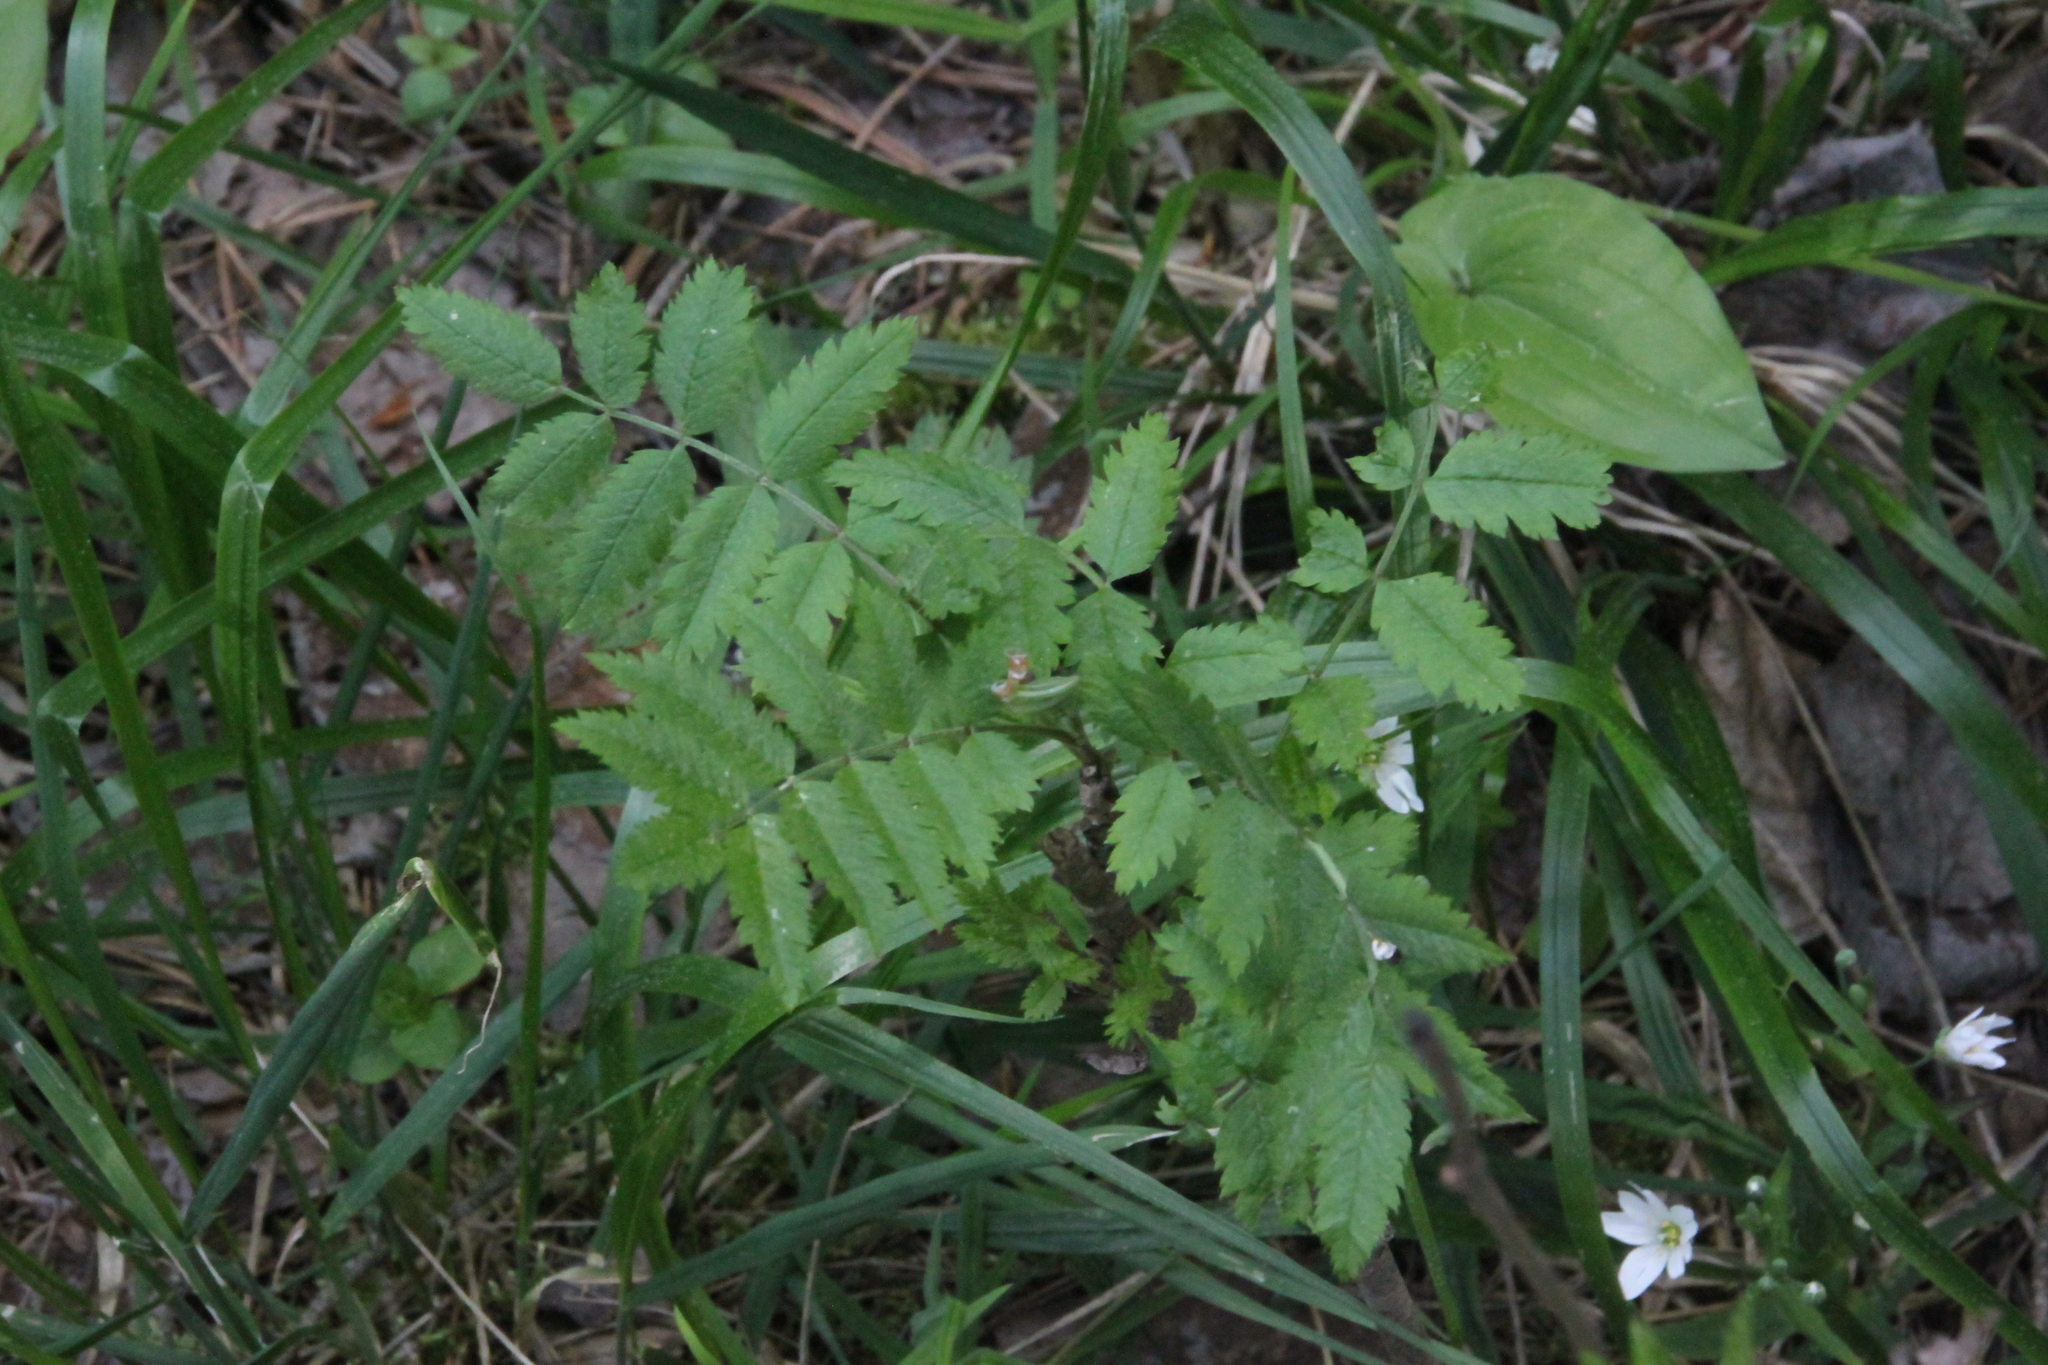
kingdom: Plantae
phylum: Tracheophyta
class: Magnoliopsida
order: Rosales
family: Rosaceae
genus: Sorbus
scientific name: Sorbus aucuparia
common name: Rowan
